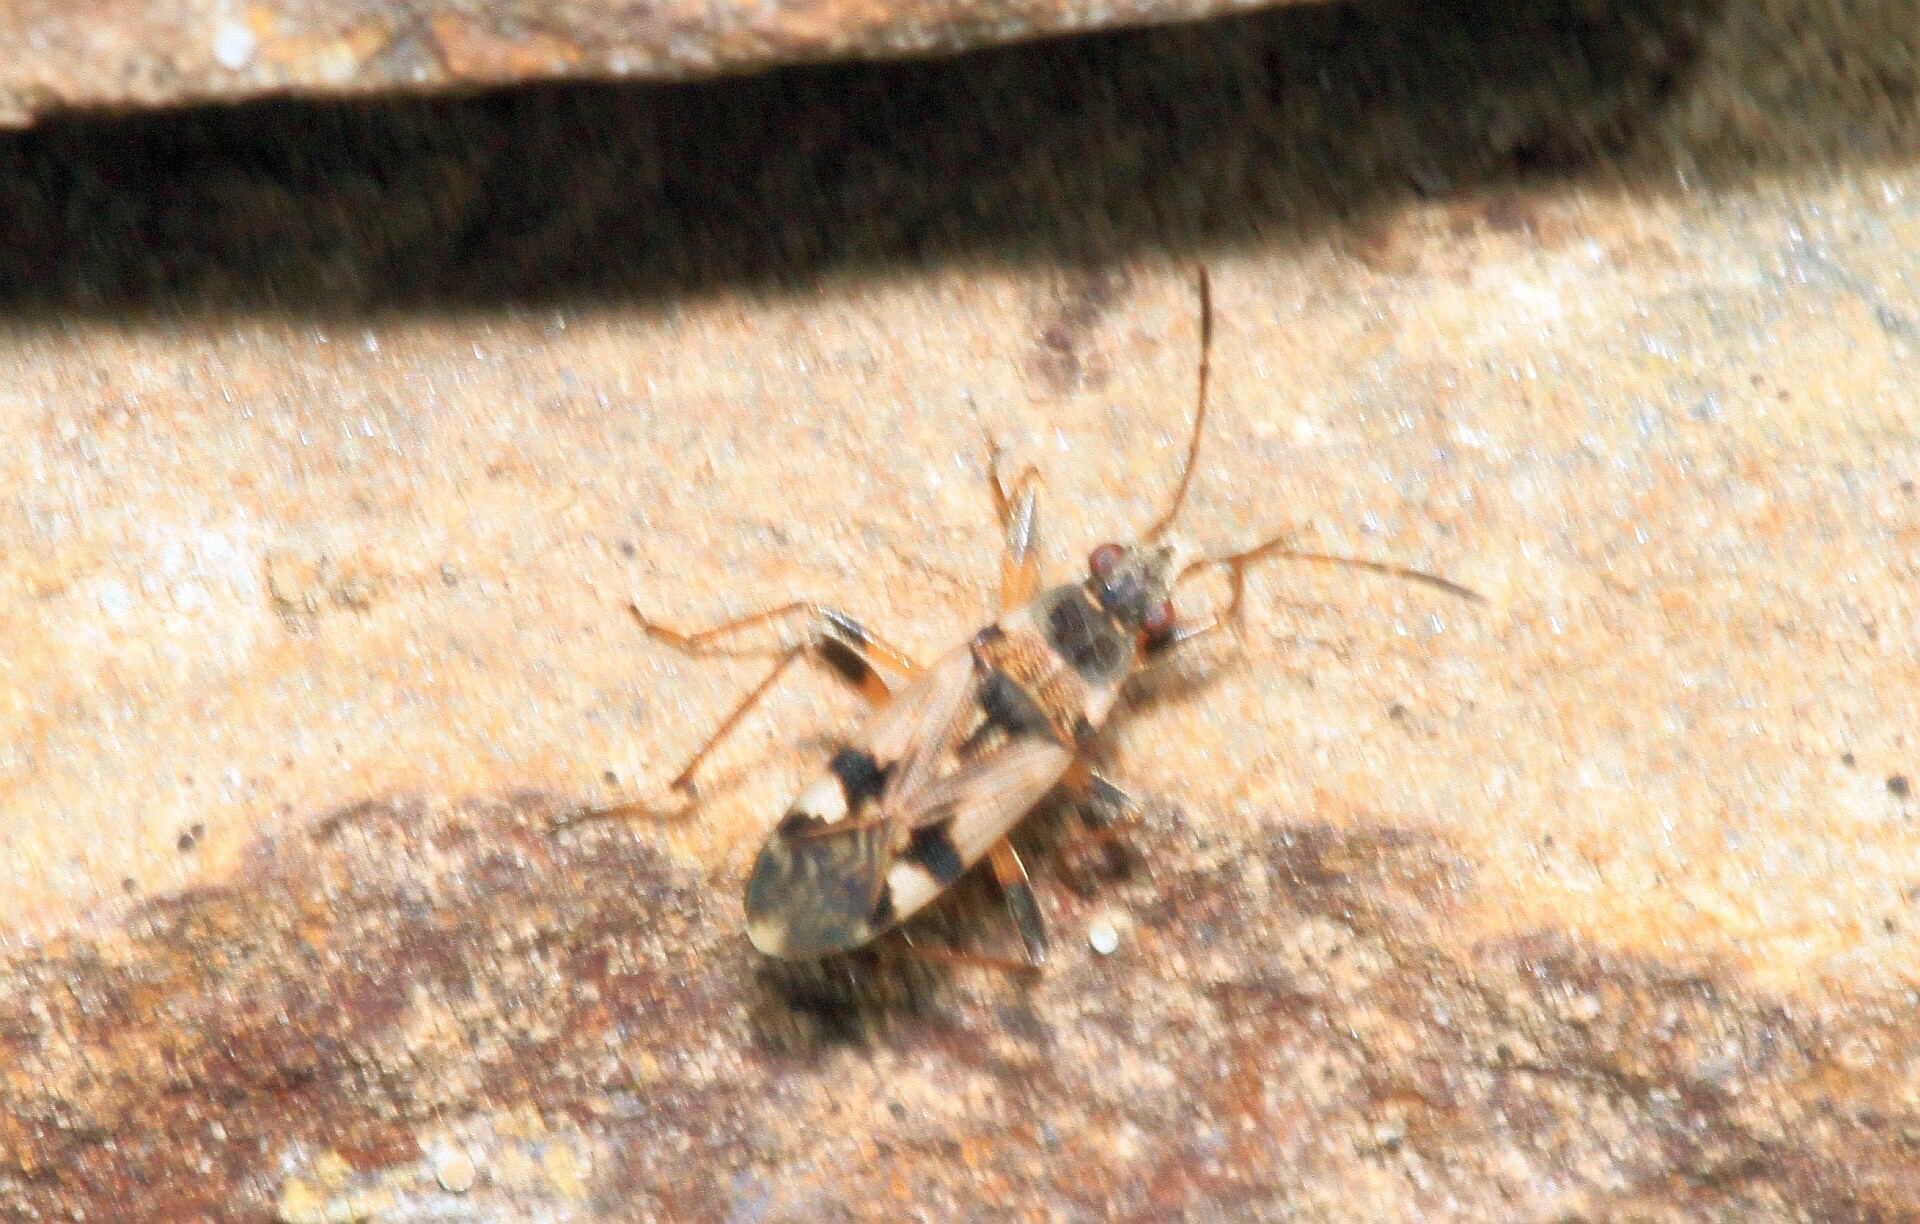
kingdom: Animalia
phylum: Arthropoda
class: Insecta
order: Hemiptera
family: Rhyparochromidae
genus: Beosus
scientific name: Beosus maritimus
